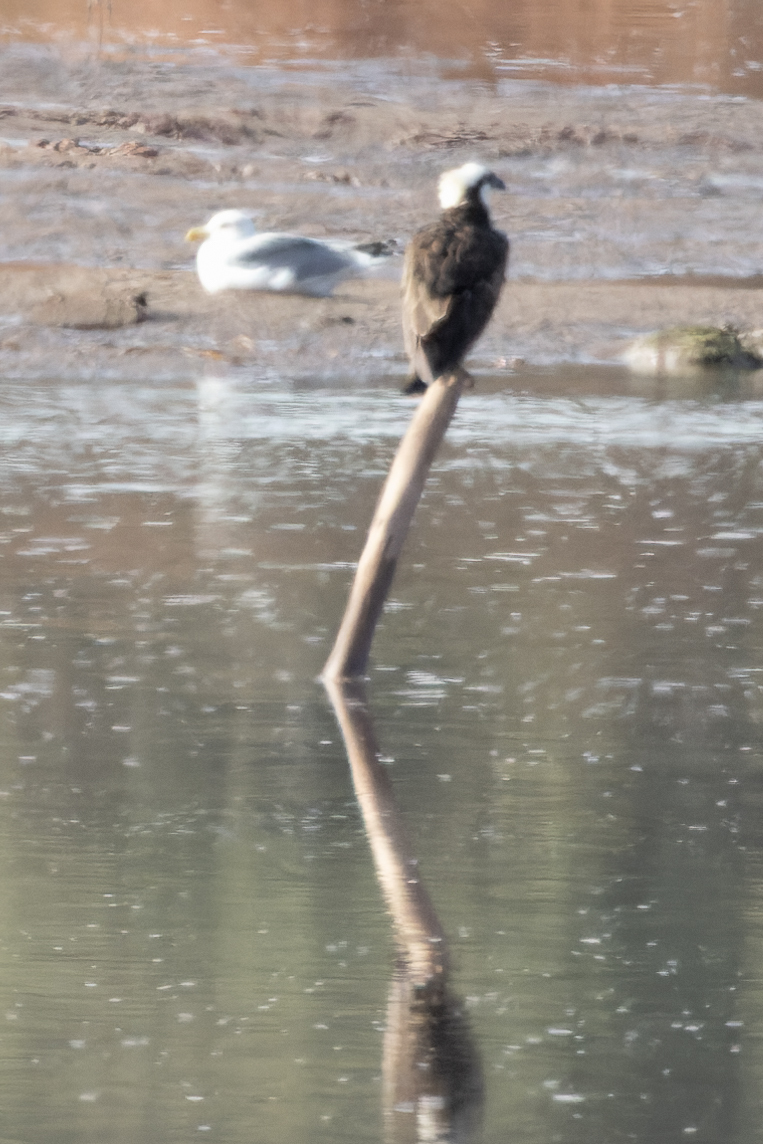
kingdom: Animalia
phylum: Chordata
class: Aves
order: Accipitriformes
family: Pandionidae
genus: Pandion
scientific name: Pandion haliaetus
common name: Osprey
